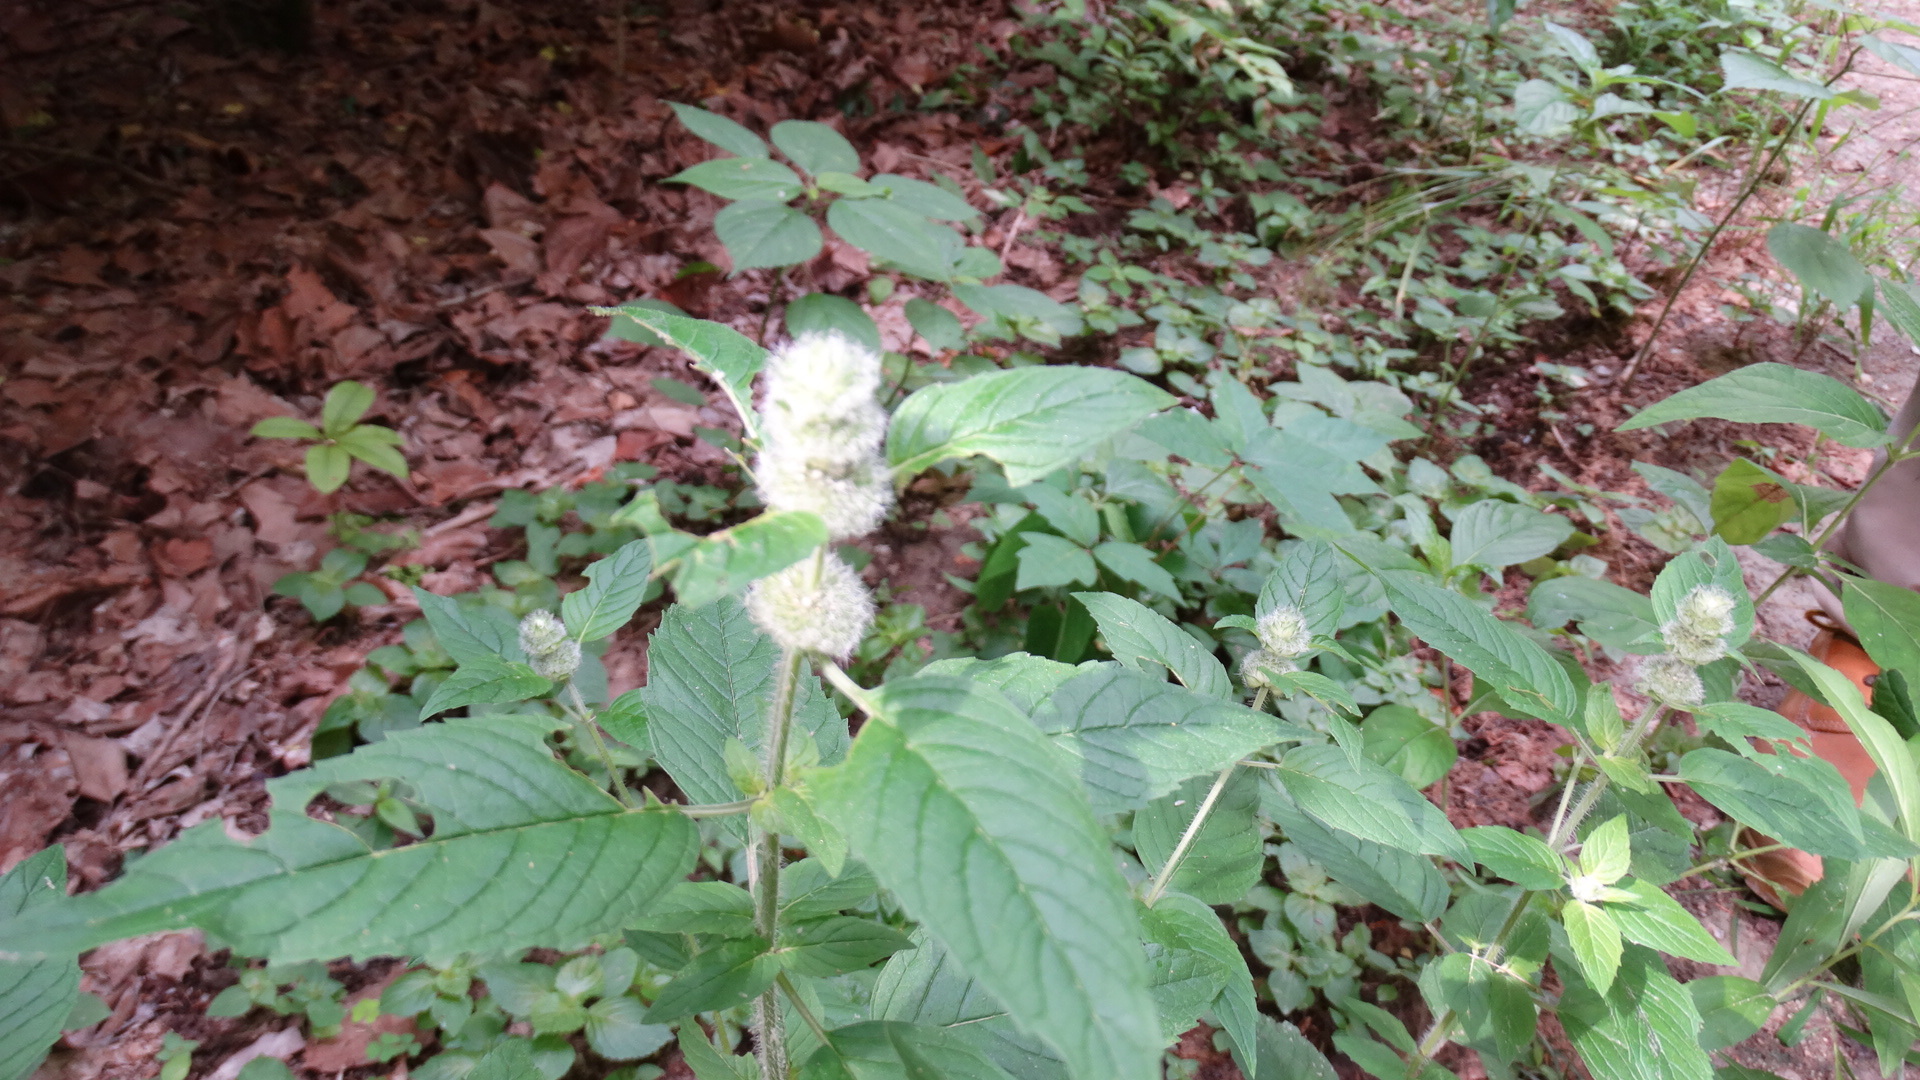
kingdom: Plantae
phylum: Tracheophyta
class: Magnoliopsida
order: Lamiales
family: Lamiaceae
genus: Blephilia
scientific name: Blephilia hirsuta
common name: Hairy blephilia
